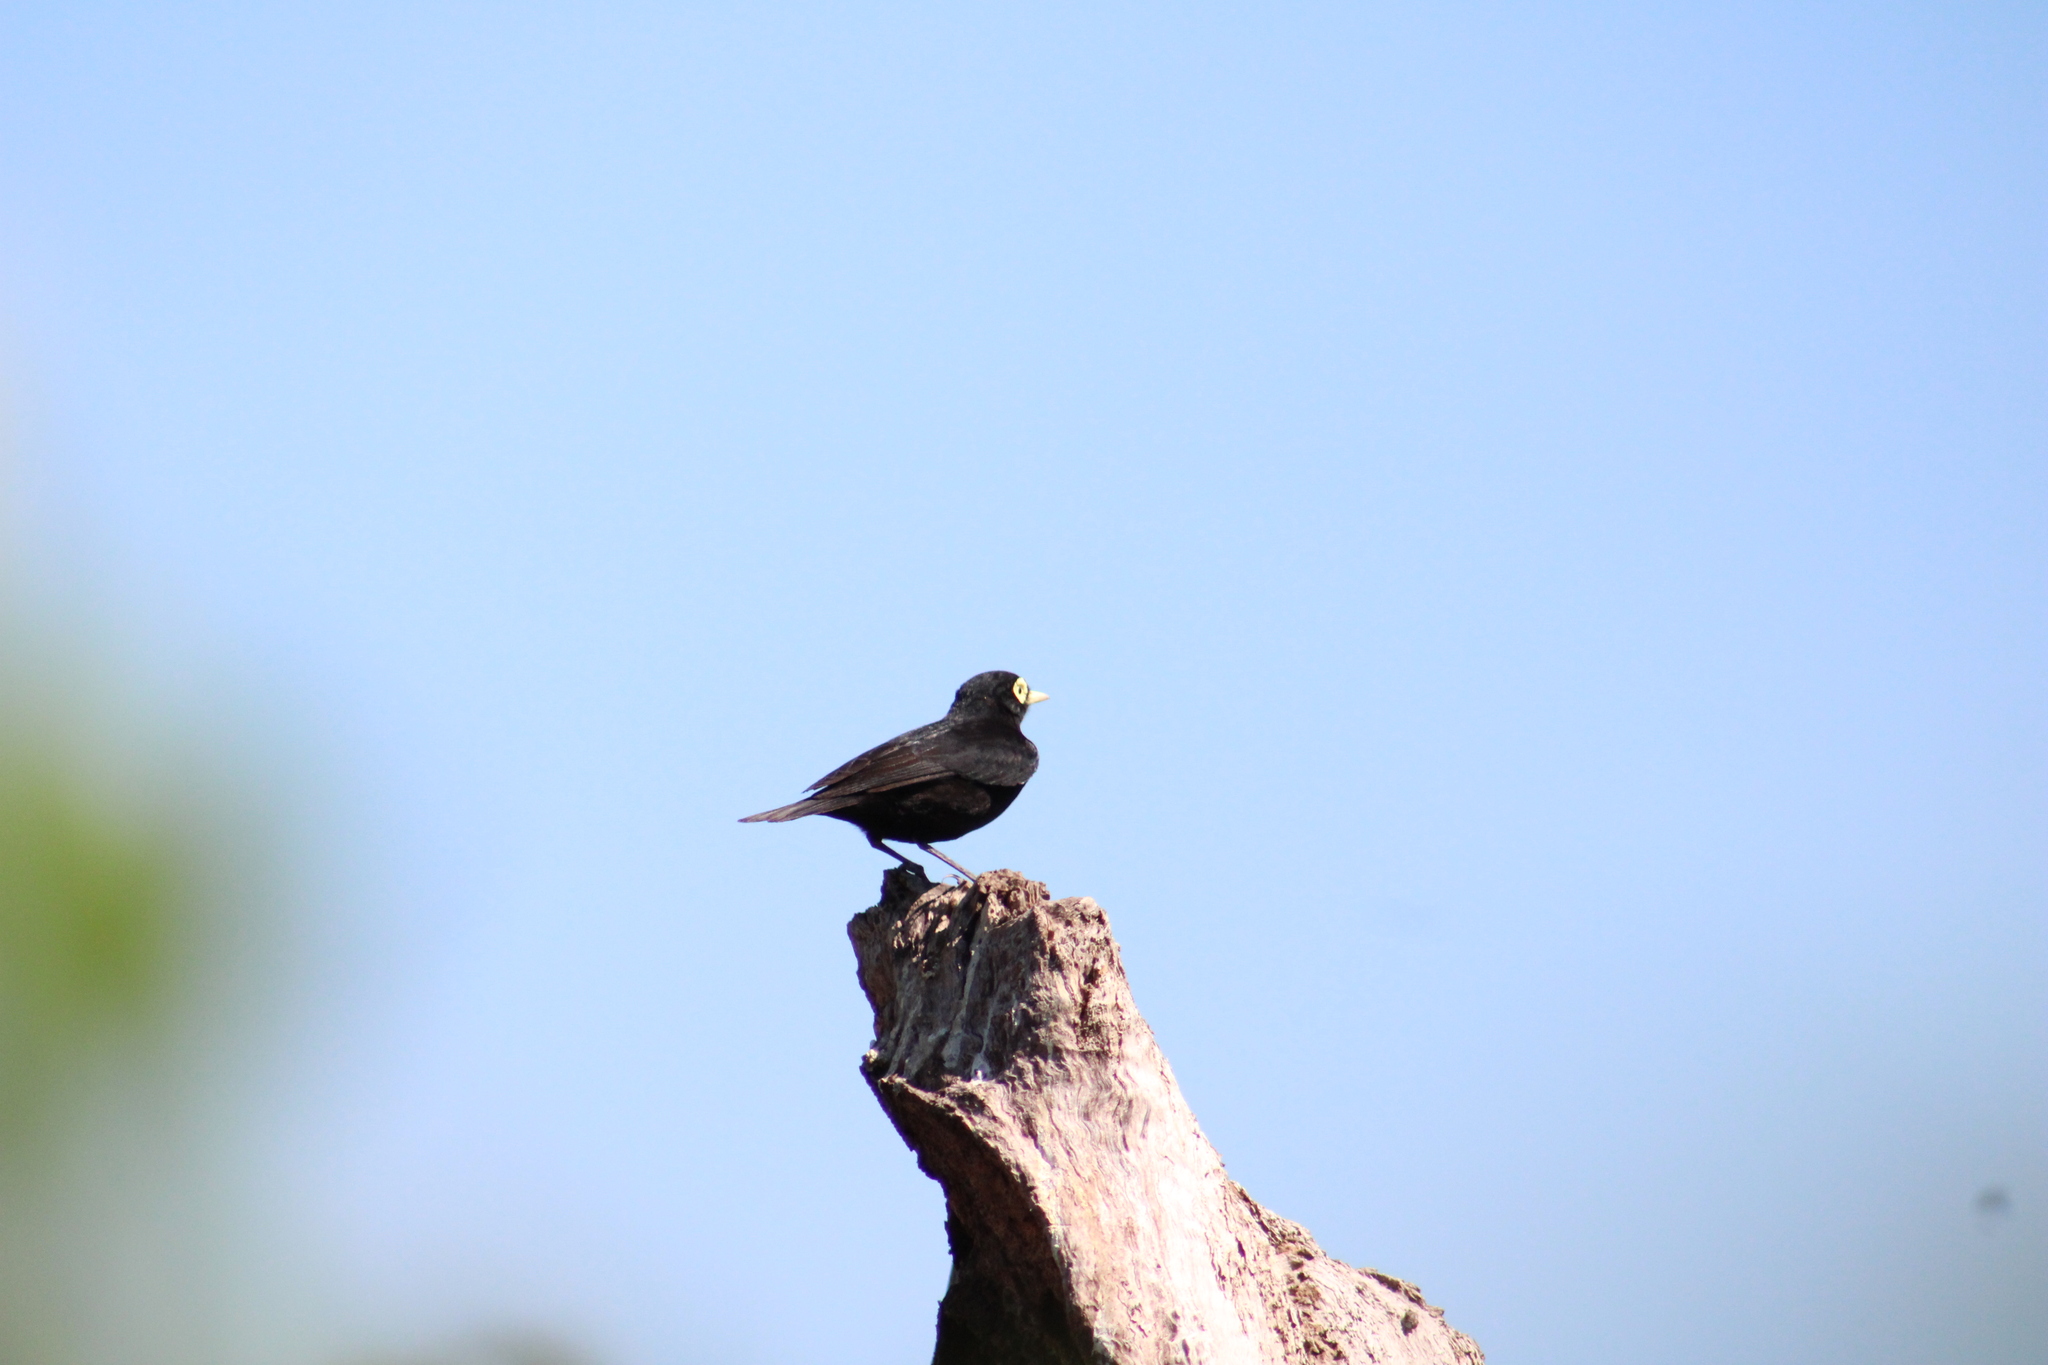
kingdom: Animalia
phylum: Chordata
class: Aves
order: Passeriformes
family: Tyrannidae
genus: Hymenops
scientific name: Hymenops perspicillatus
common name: Spectacled tyrant
